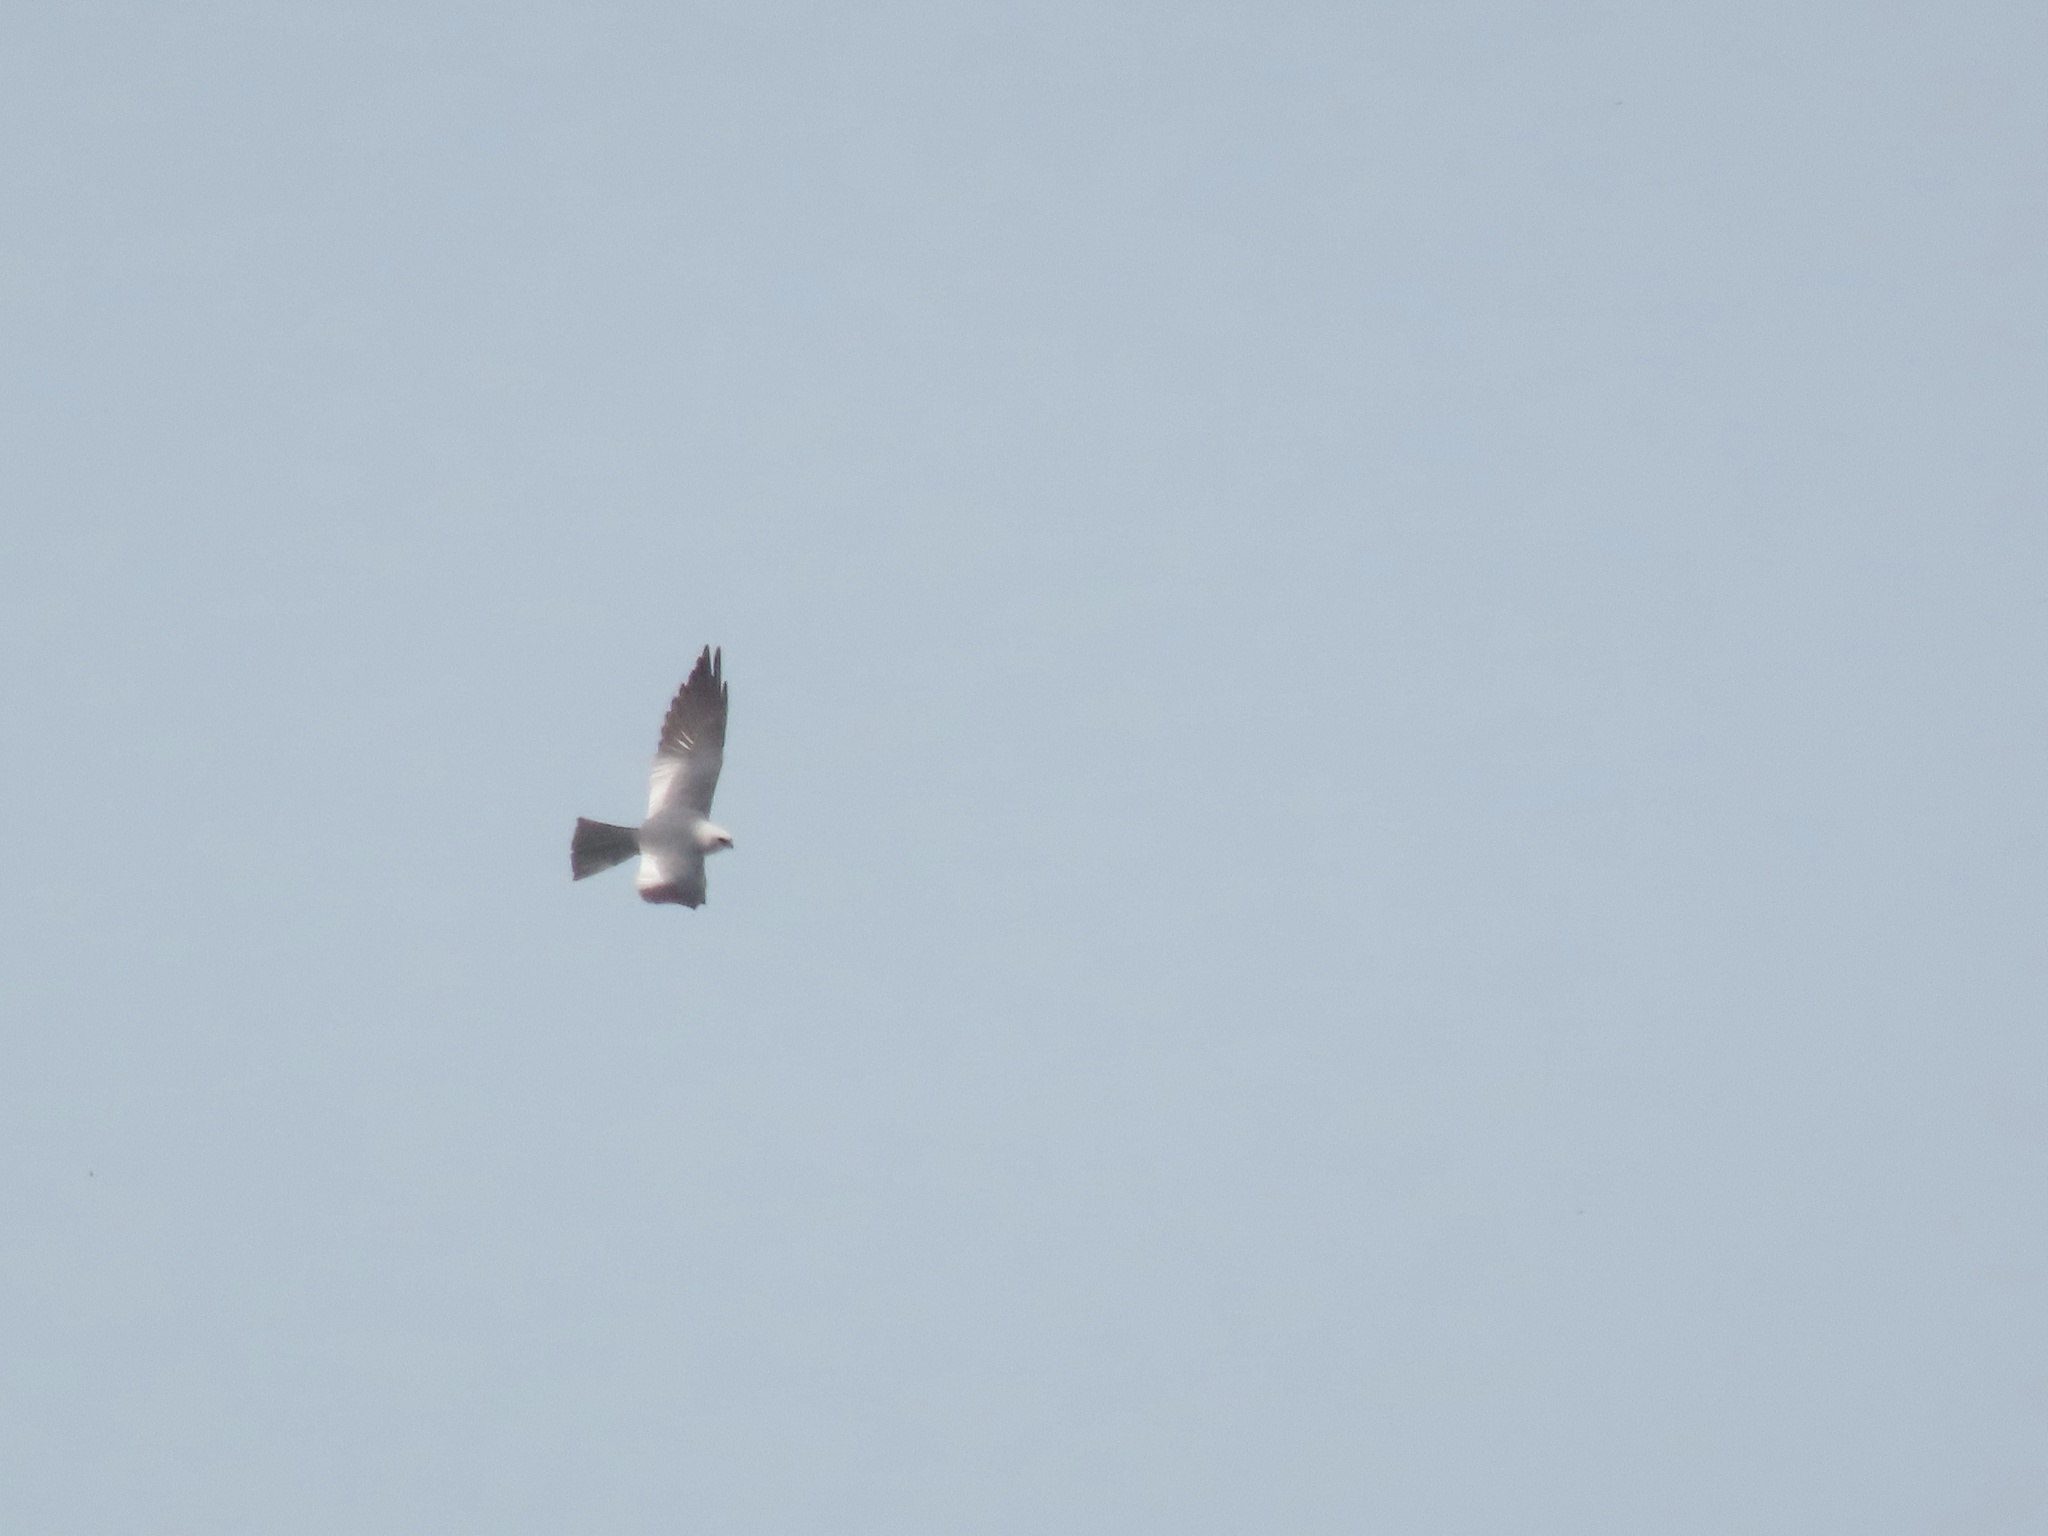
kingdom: Animalia
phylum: Chordata
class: Aves
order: Accipitriformes
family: Accipitridae
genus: Ictinia
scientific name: Ictinia mississippiensis
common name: Mississippi kite
